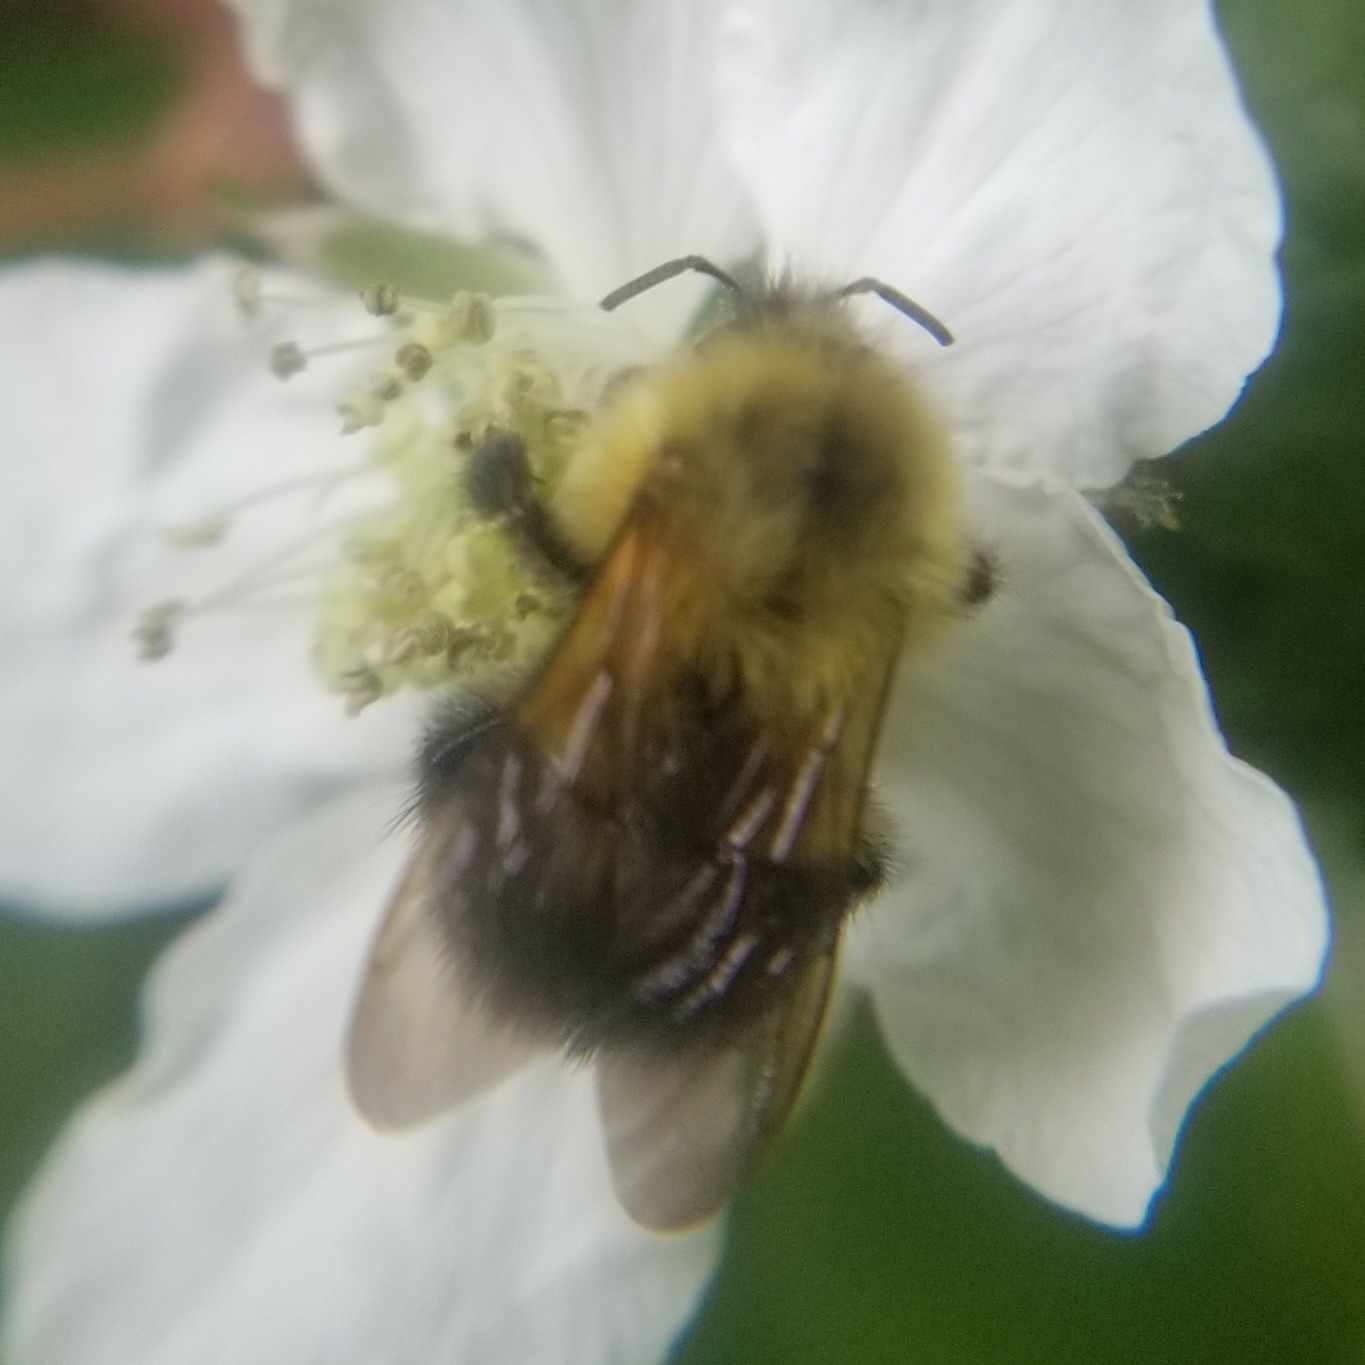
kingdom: Animalia
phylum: Arthropoda
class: Insecta
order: Hymenoptera
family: Apidae
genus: Bombus
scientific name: Bombus bimaculatus
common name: Two-spotted bumble bee
